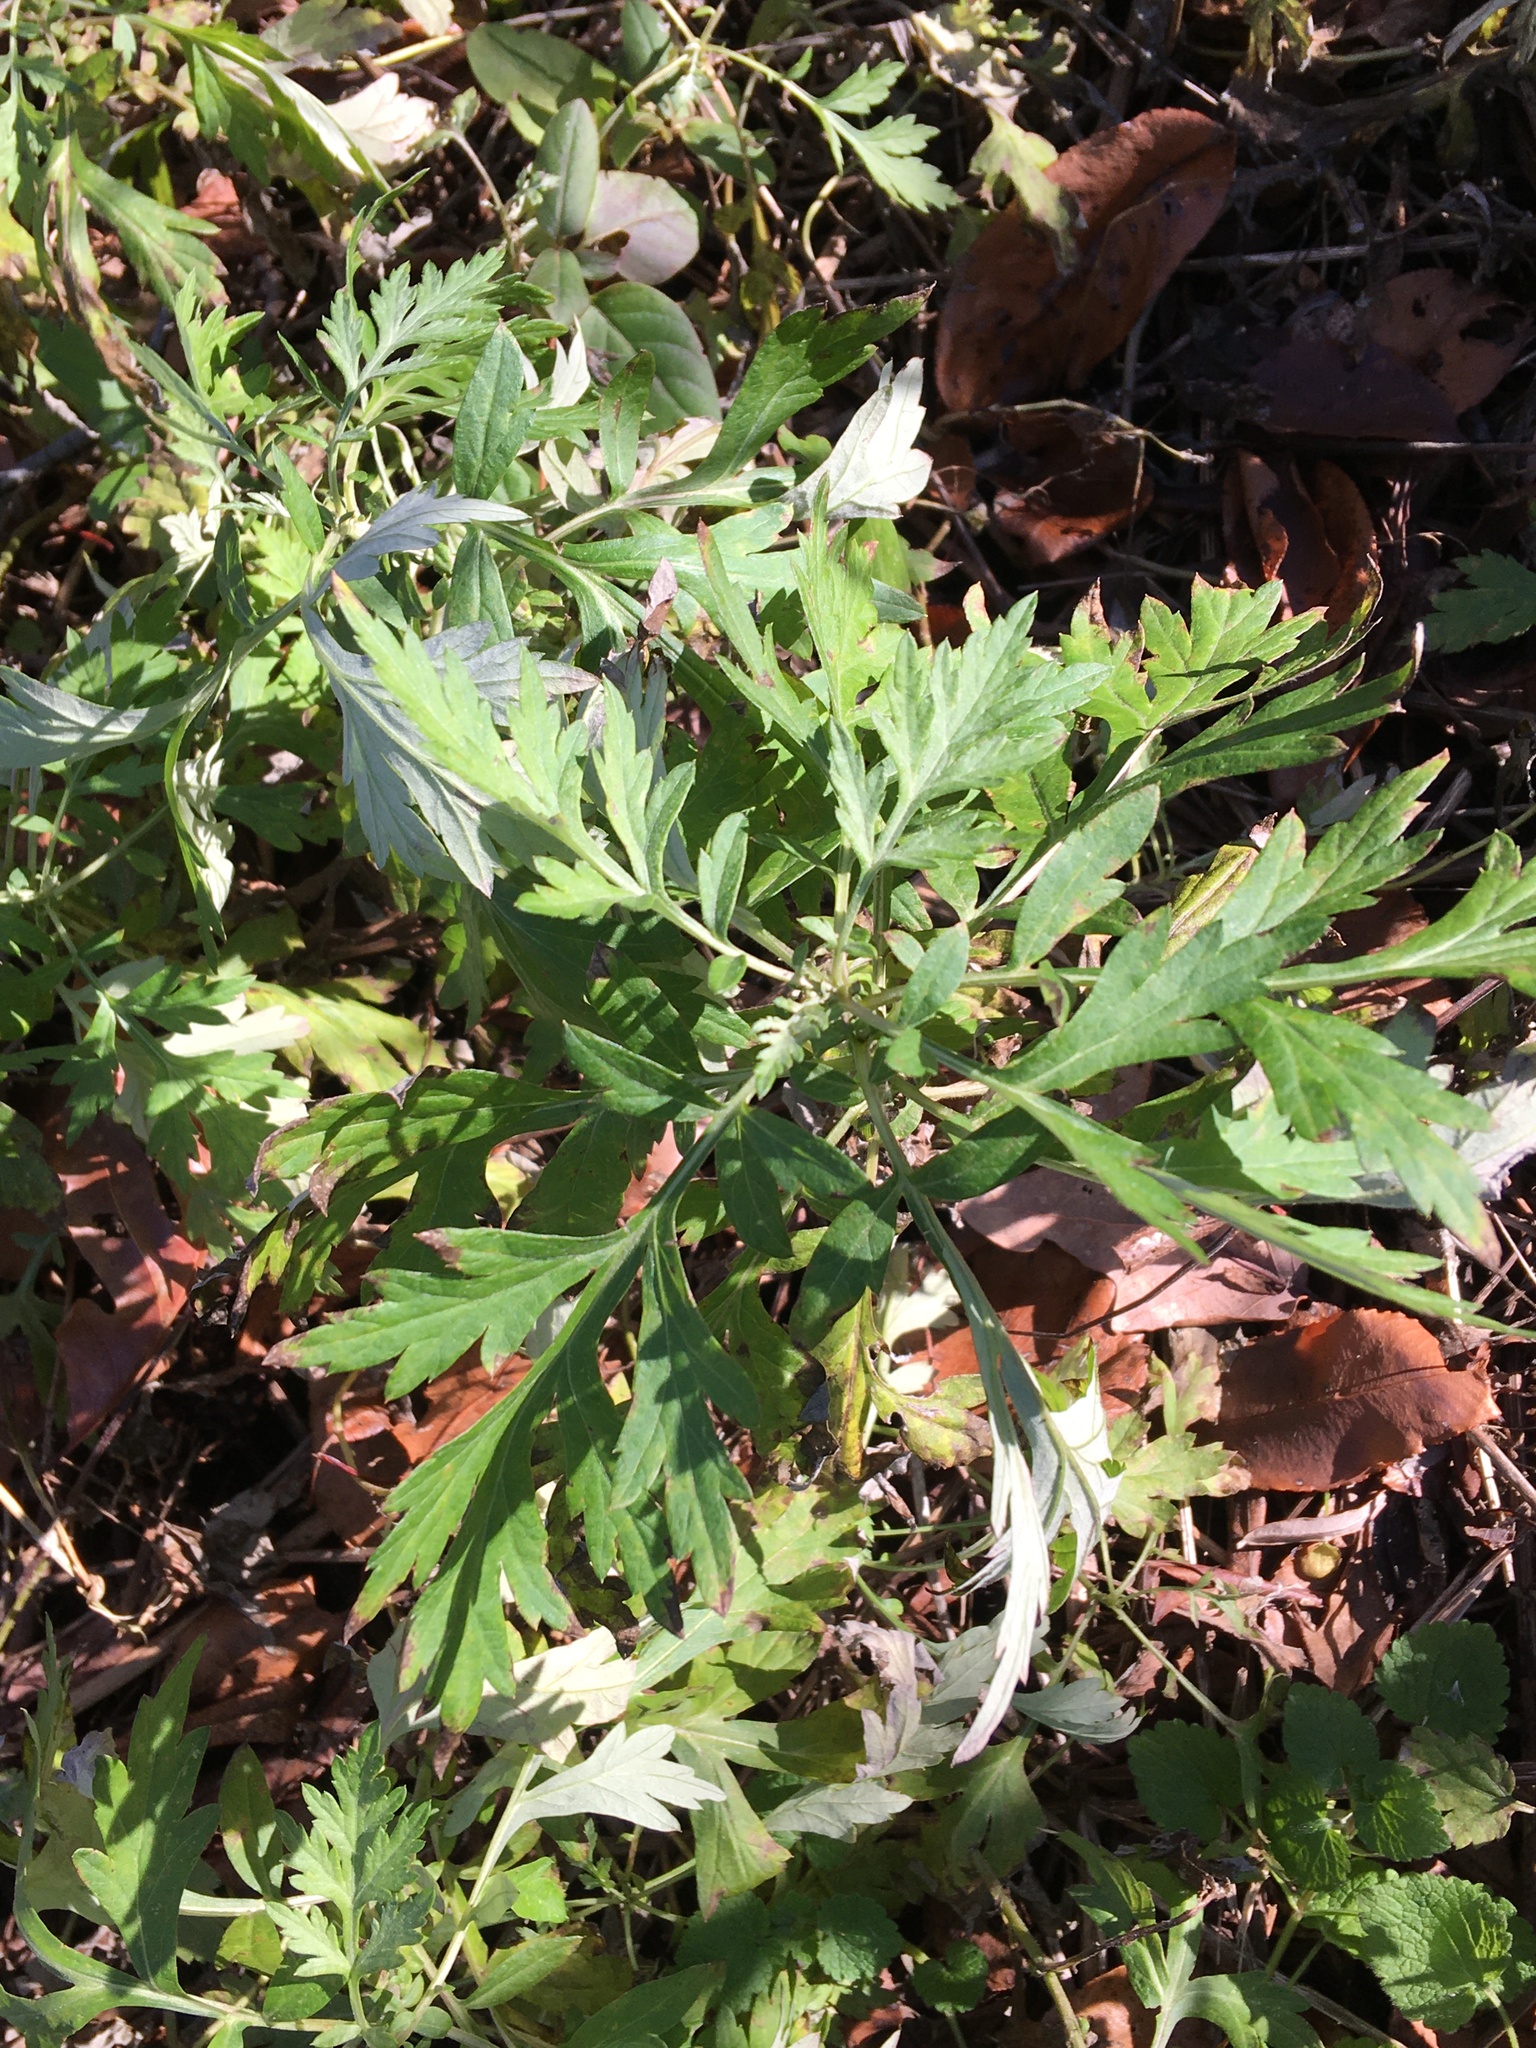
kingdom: Plantae
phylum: Tracheophyta
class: Magnoliopsida
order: Asterales
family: Asteraceae
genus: Artemisia
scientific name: Artemisia vulgaris
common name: Mugwort
